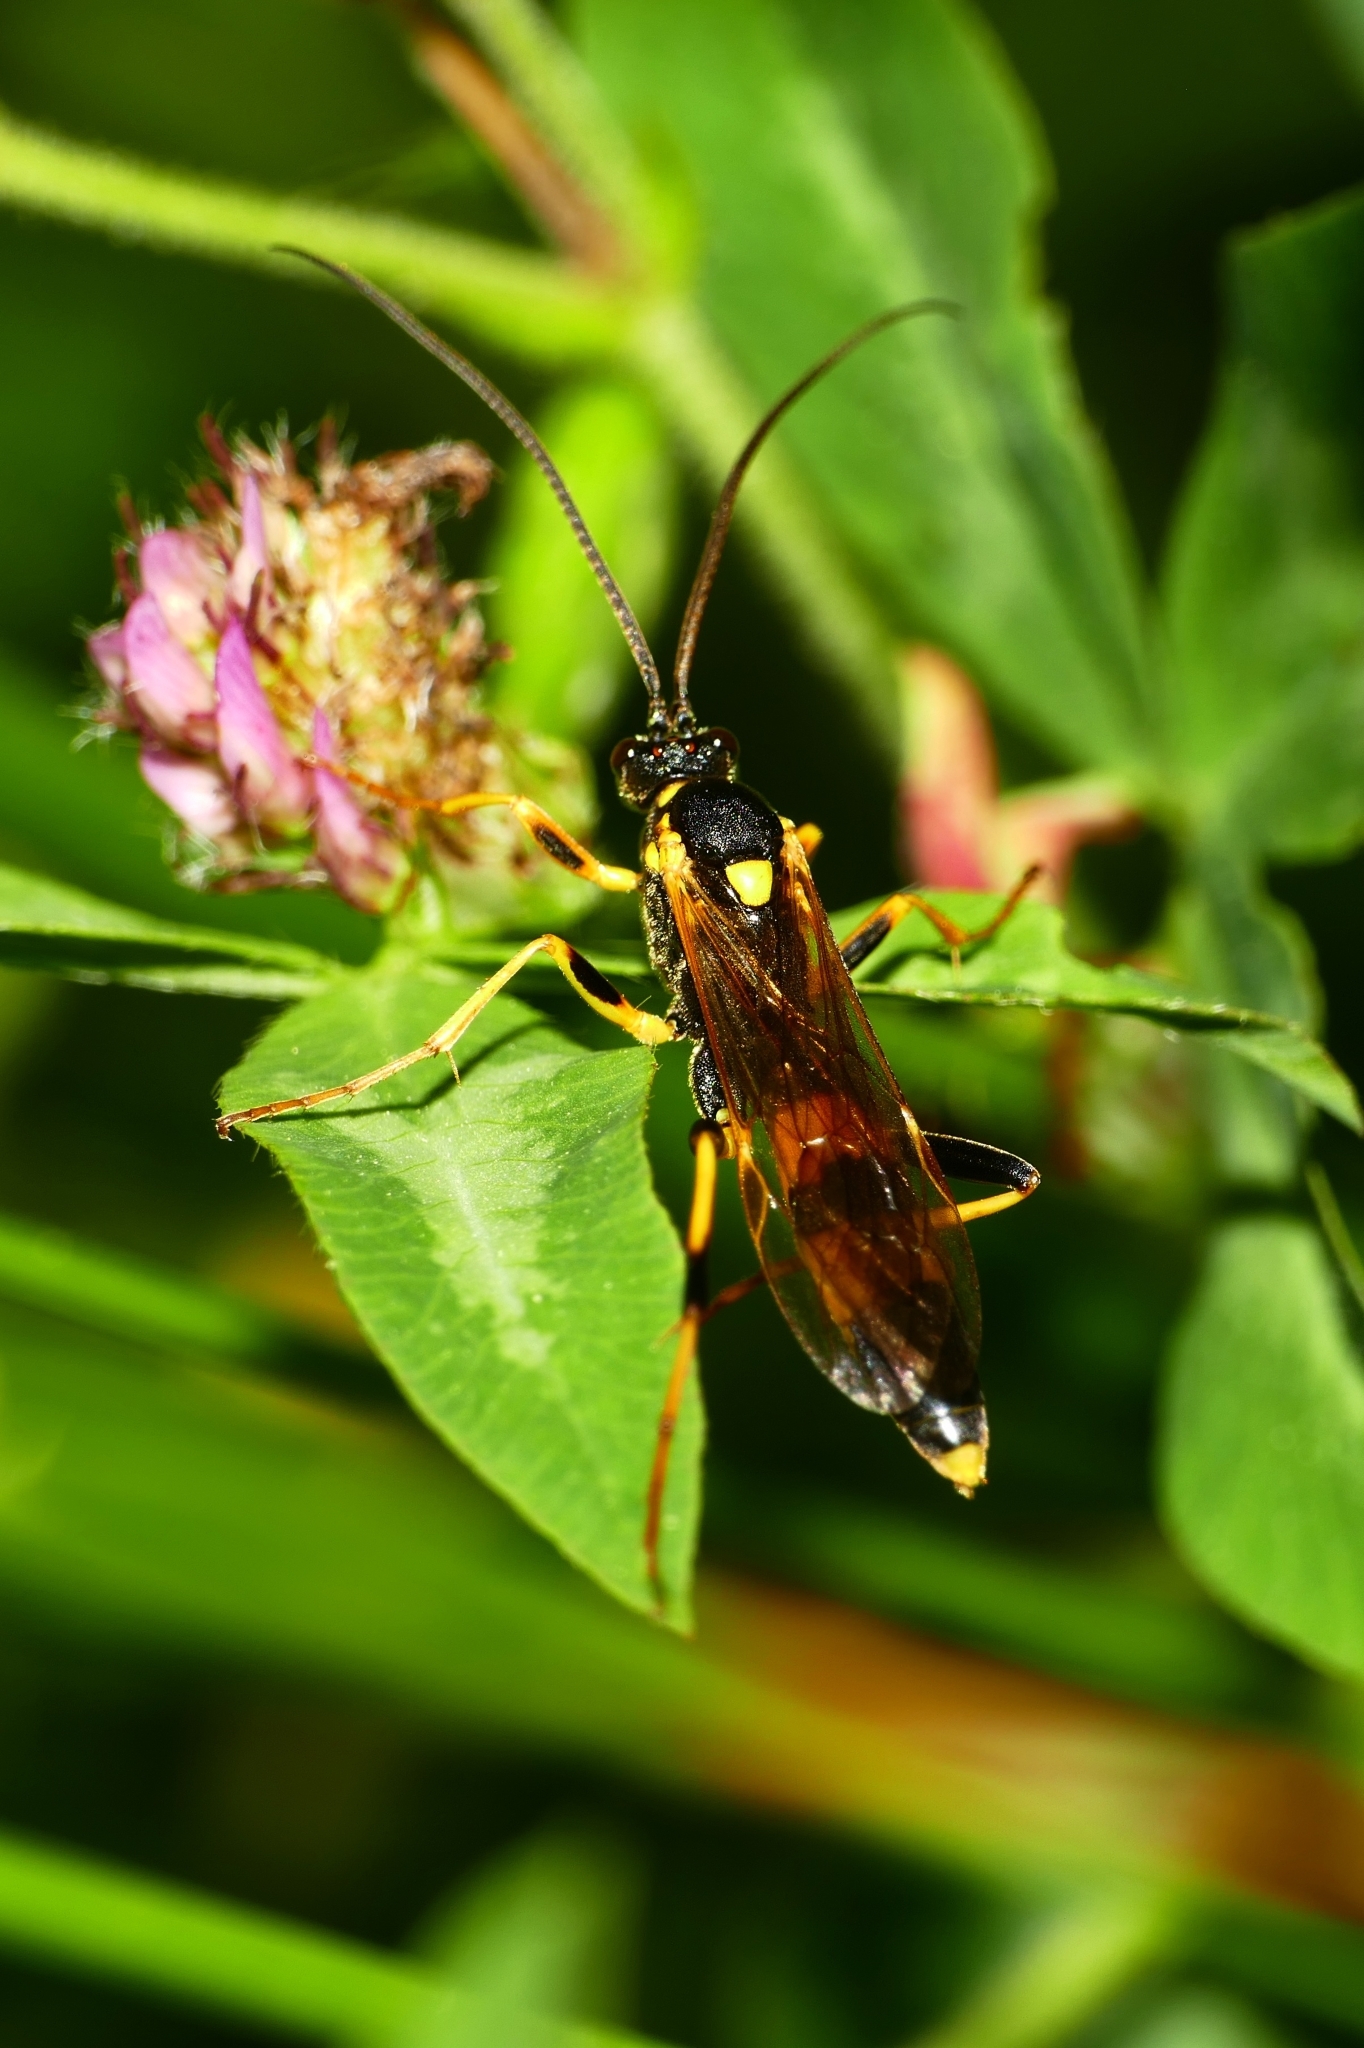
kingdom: Animalia
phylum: Arthropoda
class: Insecta
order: Hymenoptera
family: Ichneumonidae
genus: Amblyteles
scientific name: Amblyteles armatorius
